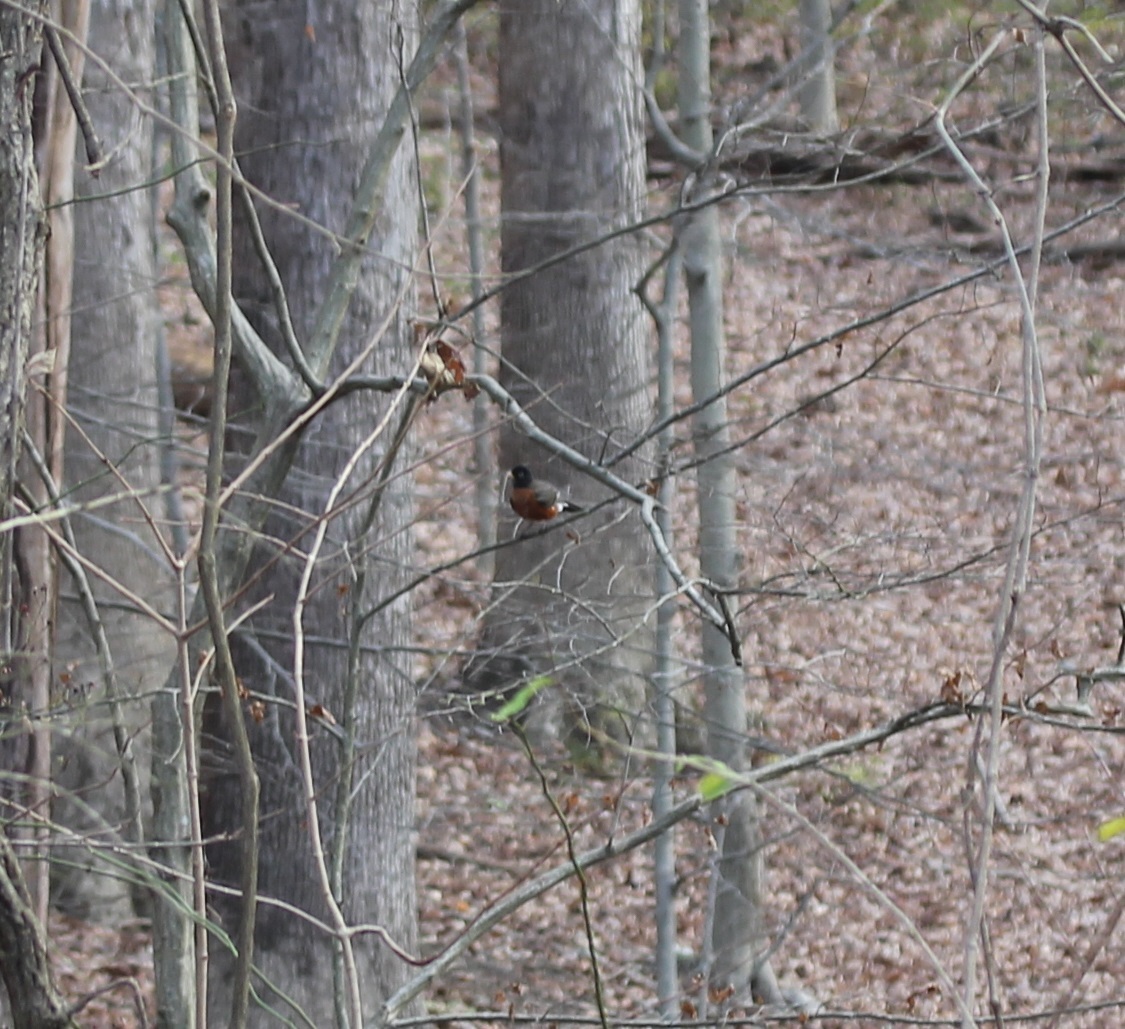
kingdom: Animalia
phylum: Chordata
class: Aves
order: Passeriformes
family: Turdidae
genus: Turdus
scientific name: Turdus migratorius
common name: American robin
